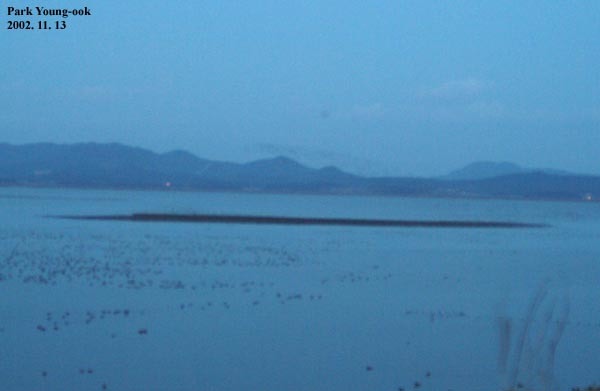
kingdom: Animalia
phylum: Chordata
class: Aves
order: Anseriformes
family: Anatidae
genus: Sibirionetta
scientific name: Sibirionetta formosa
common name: Baikal teal
